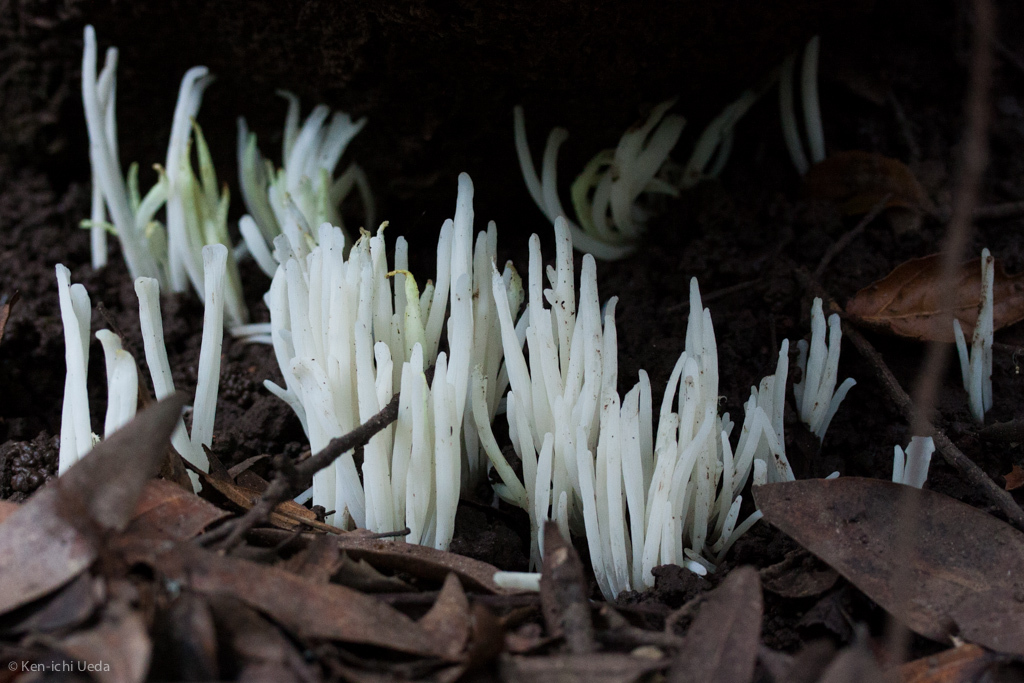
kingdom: Fungi
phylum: Basidiomycota
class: Agaricomycetes
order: Agaricales
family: Clavariaceae
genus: Clavaria
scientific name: Clavaria fragilis
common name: White spindles
